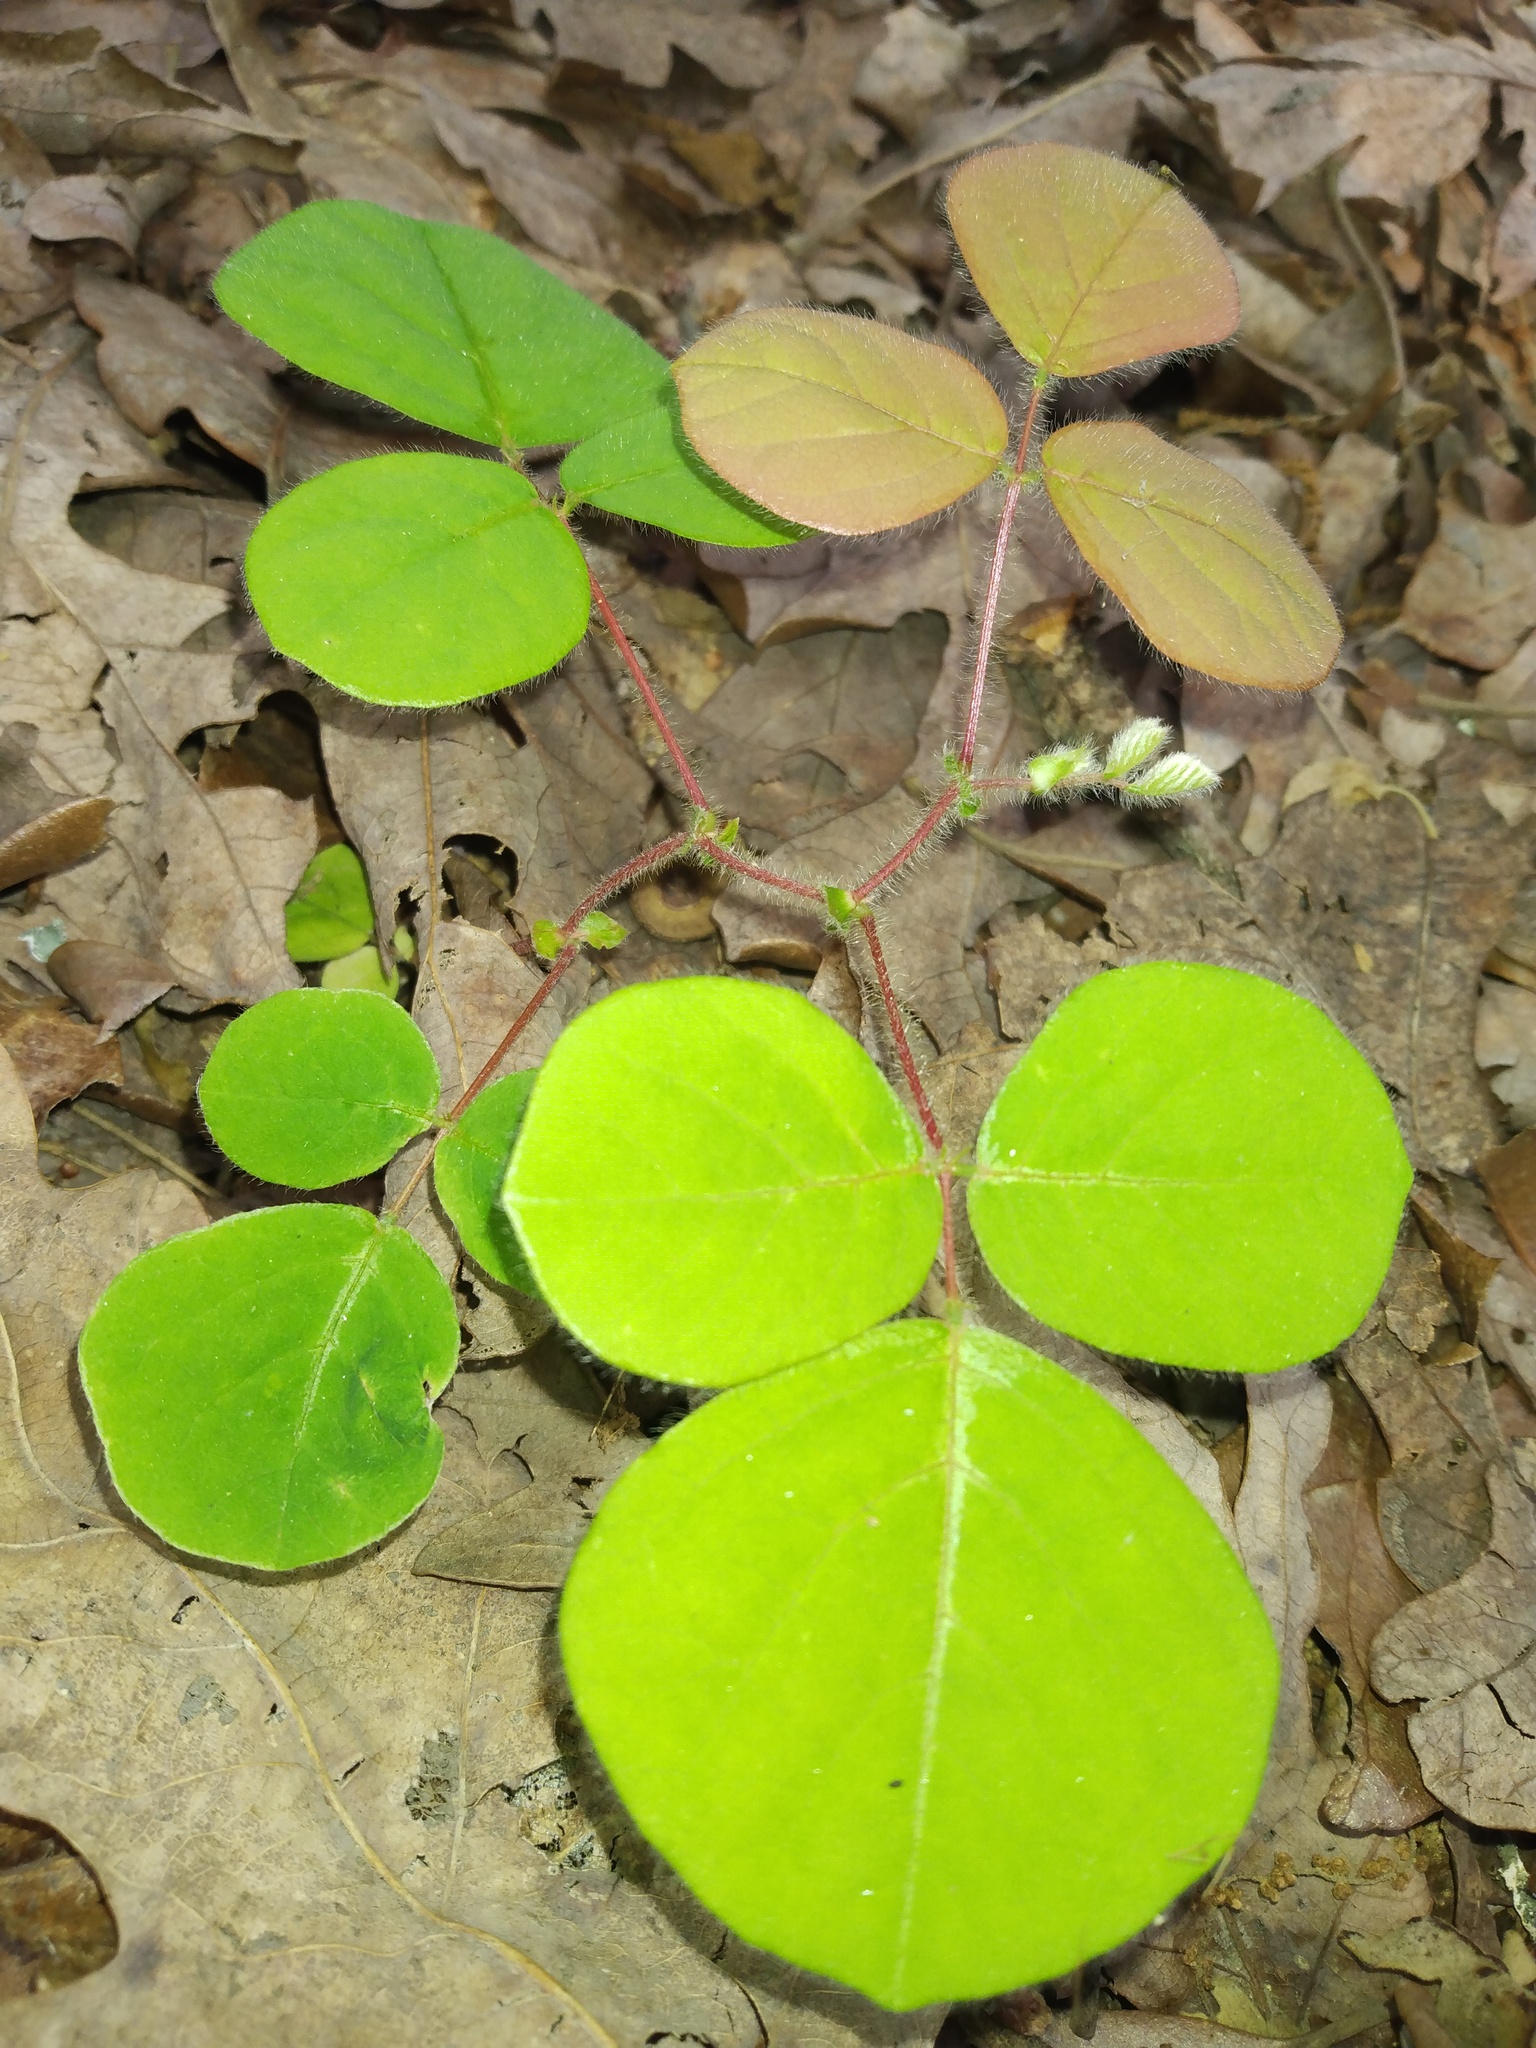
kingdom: Plantae
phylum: Tracheophyta
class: Magnoliopsida
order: Fabales
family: Fabaceae
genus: Desmodium
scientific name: Desmodium rotundifolium
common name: Dollarleaf
